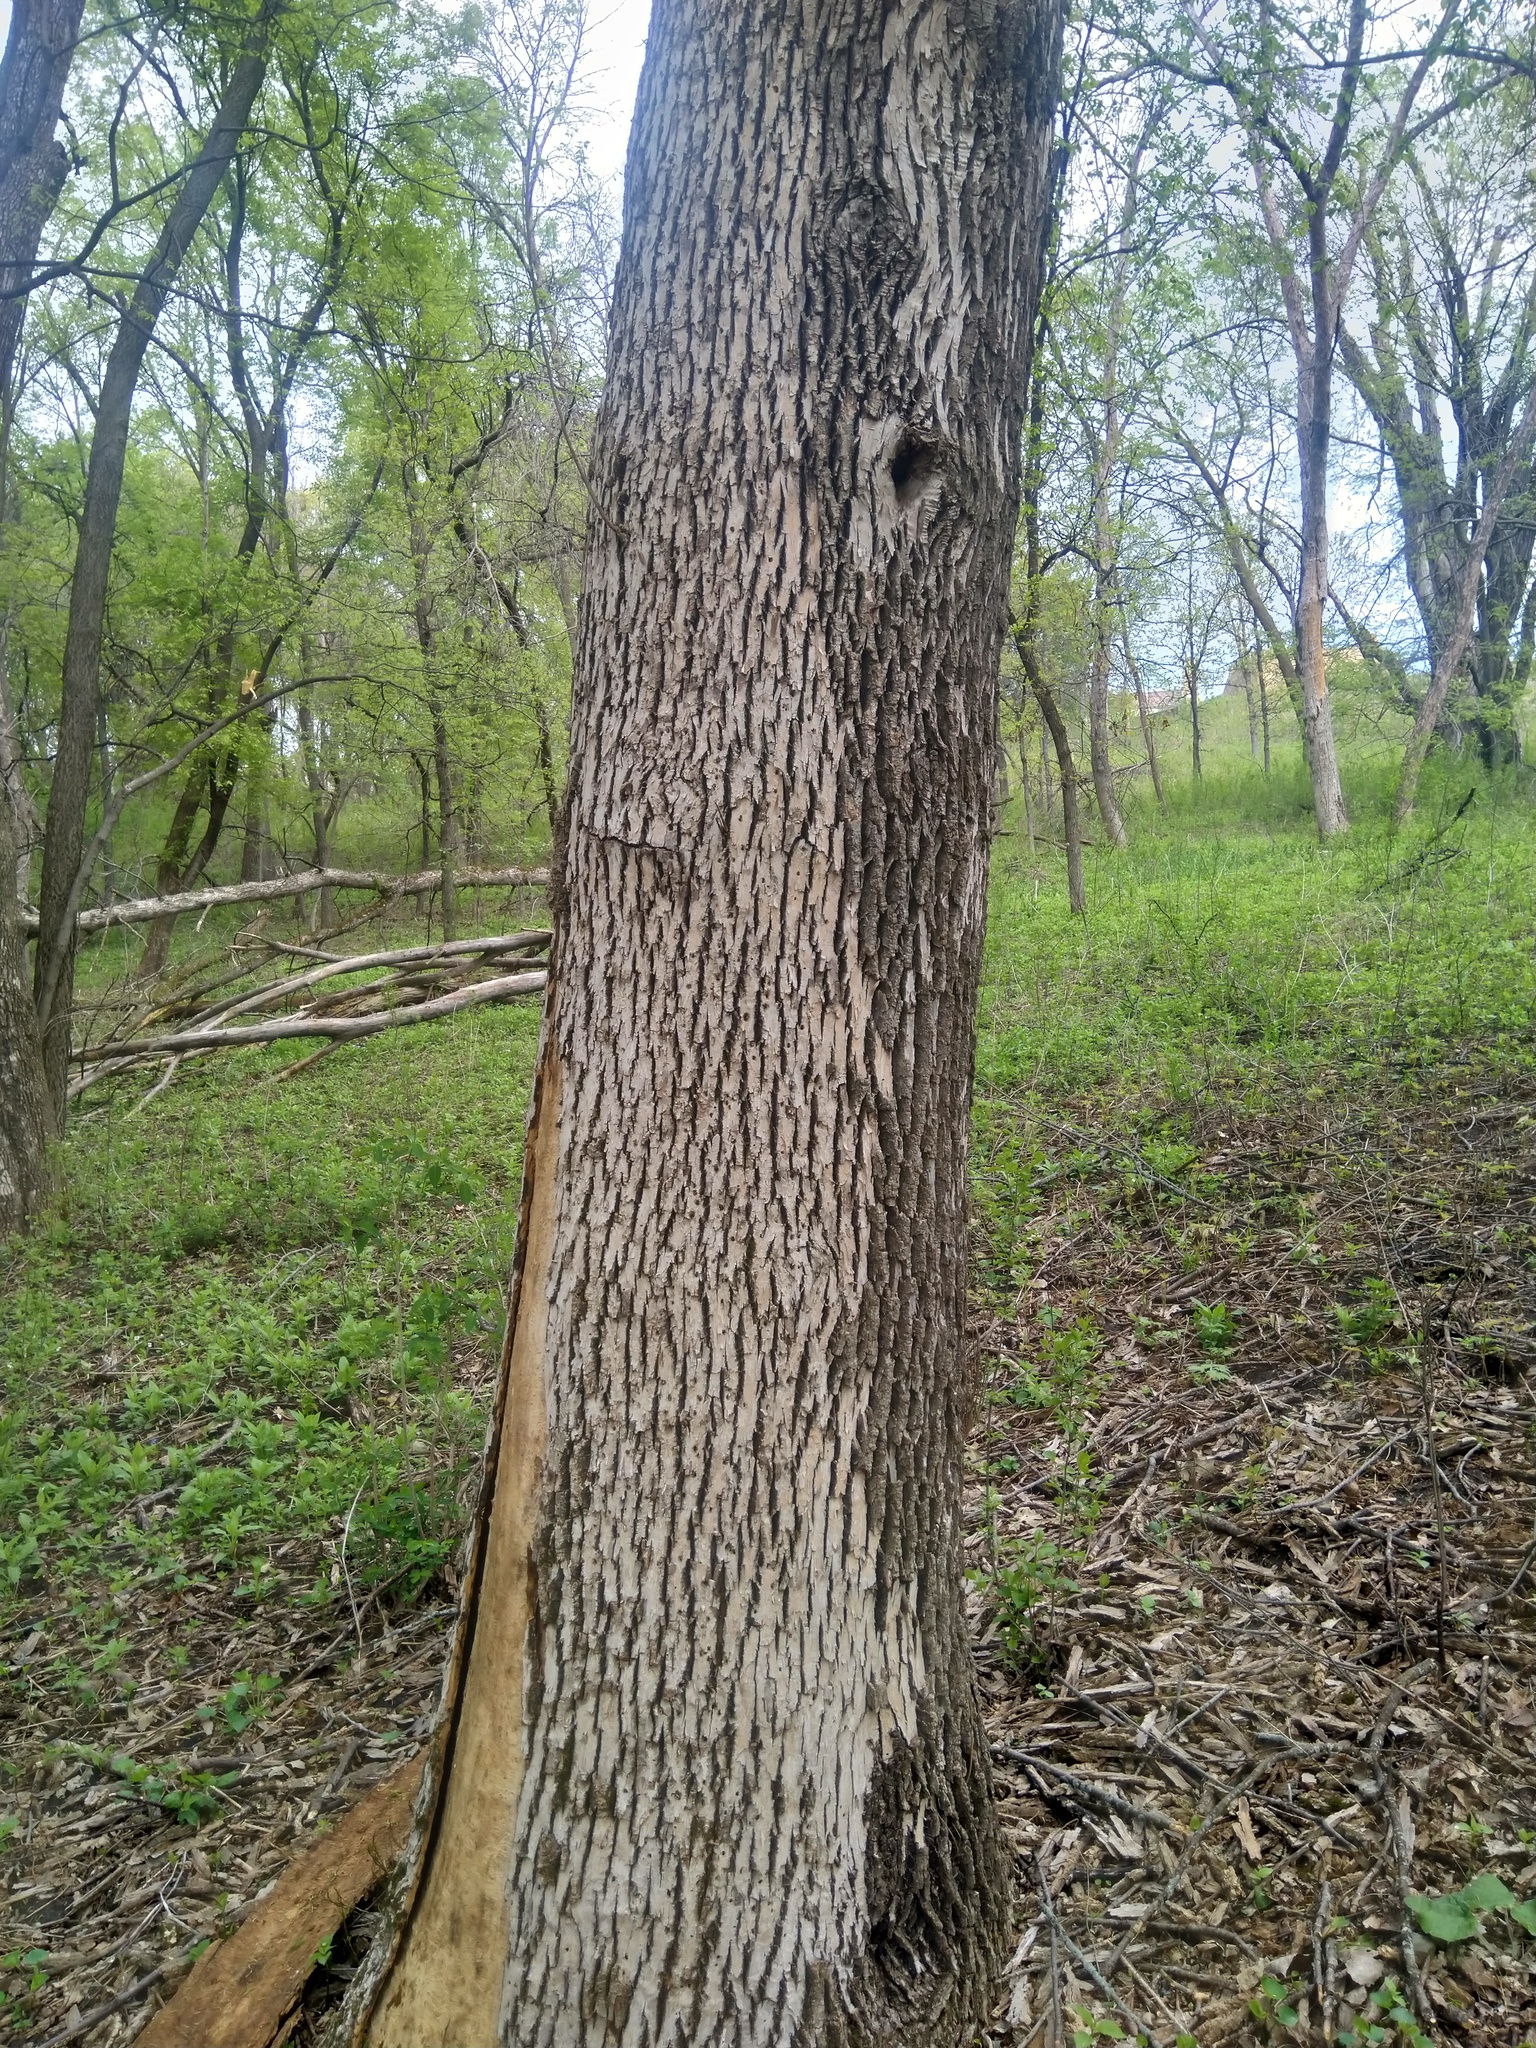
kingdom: Animalia
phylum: Arthropoda
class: Insecta
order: Coleoptera
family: Buprestidae
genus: Agrilus
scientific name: Agrilus planipennis
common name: Emerald ash borer
